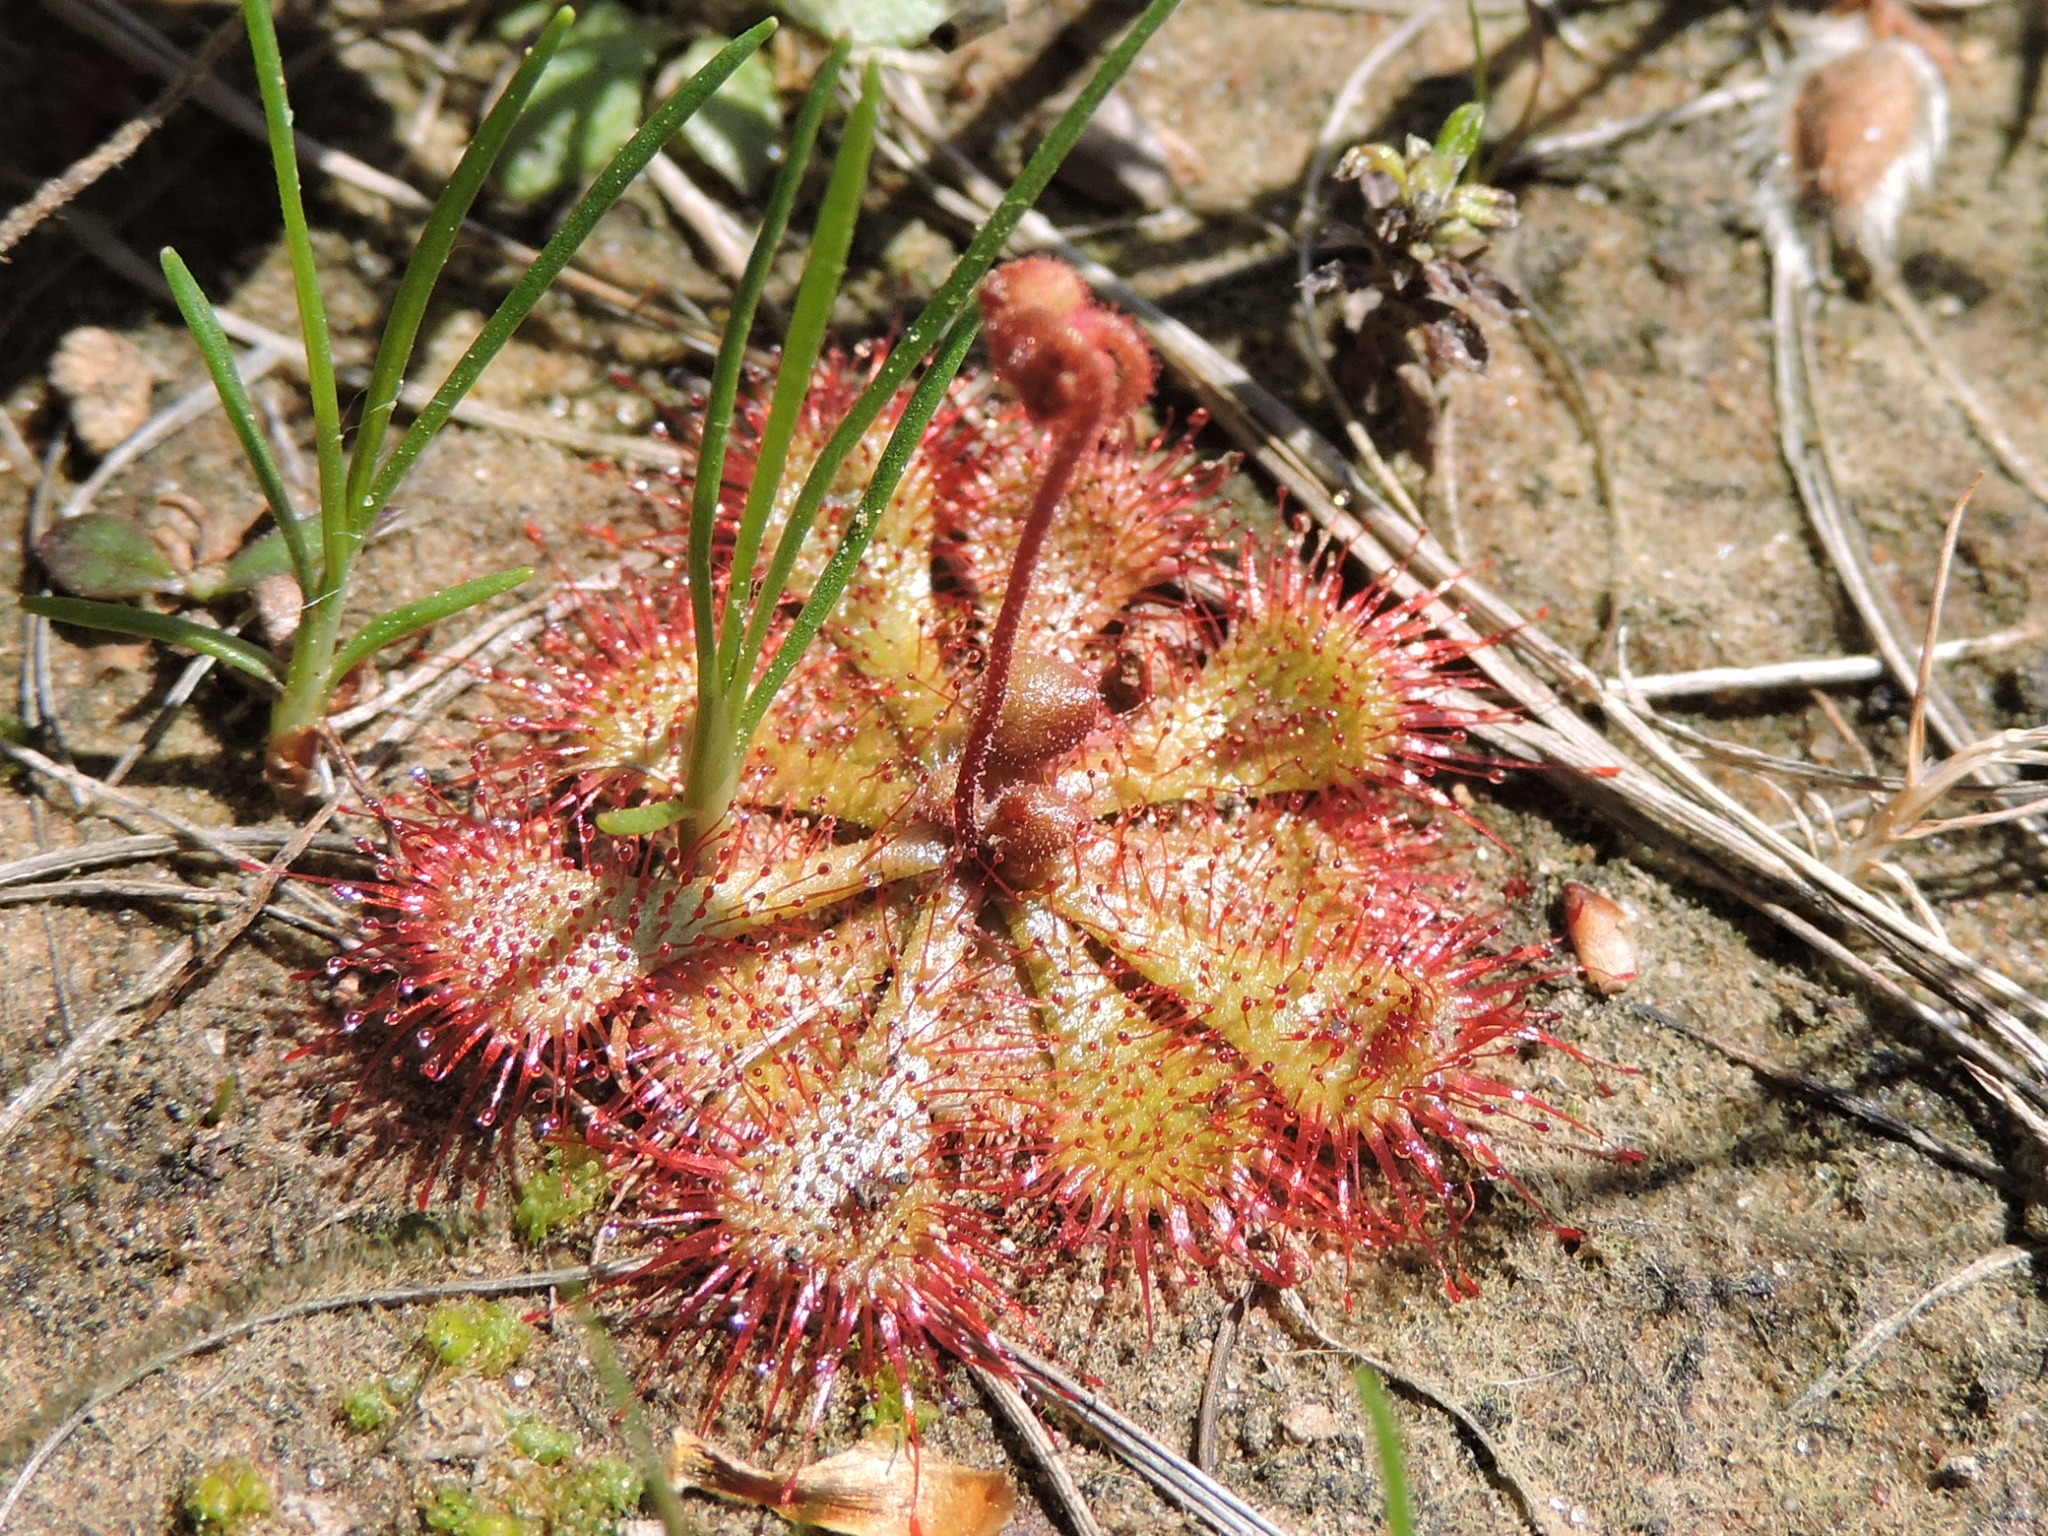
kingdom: Plantae
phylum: Tracheophyta
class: Magnoliopsida
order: Caryophyllales
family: Droseraceae
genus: Drosera
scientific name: Drosera brevifolia
